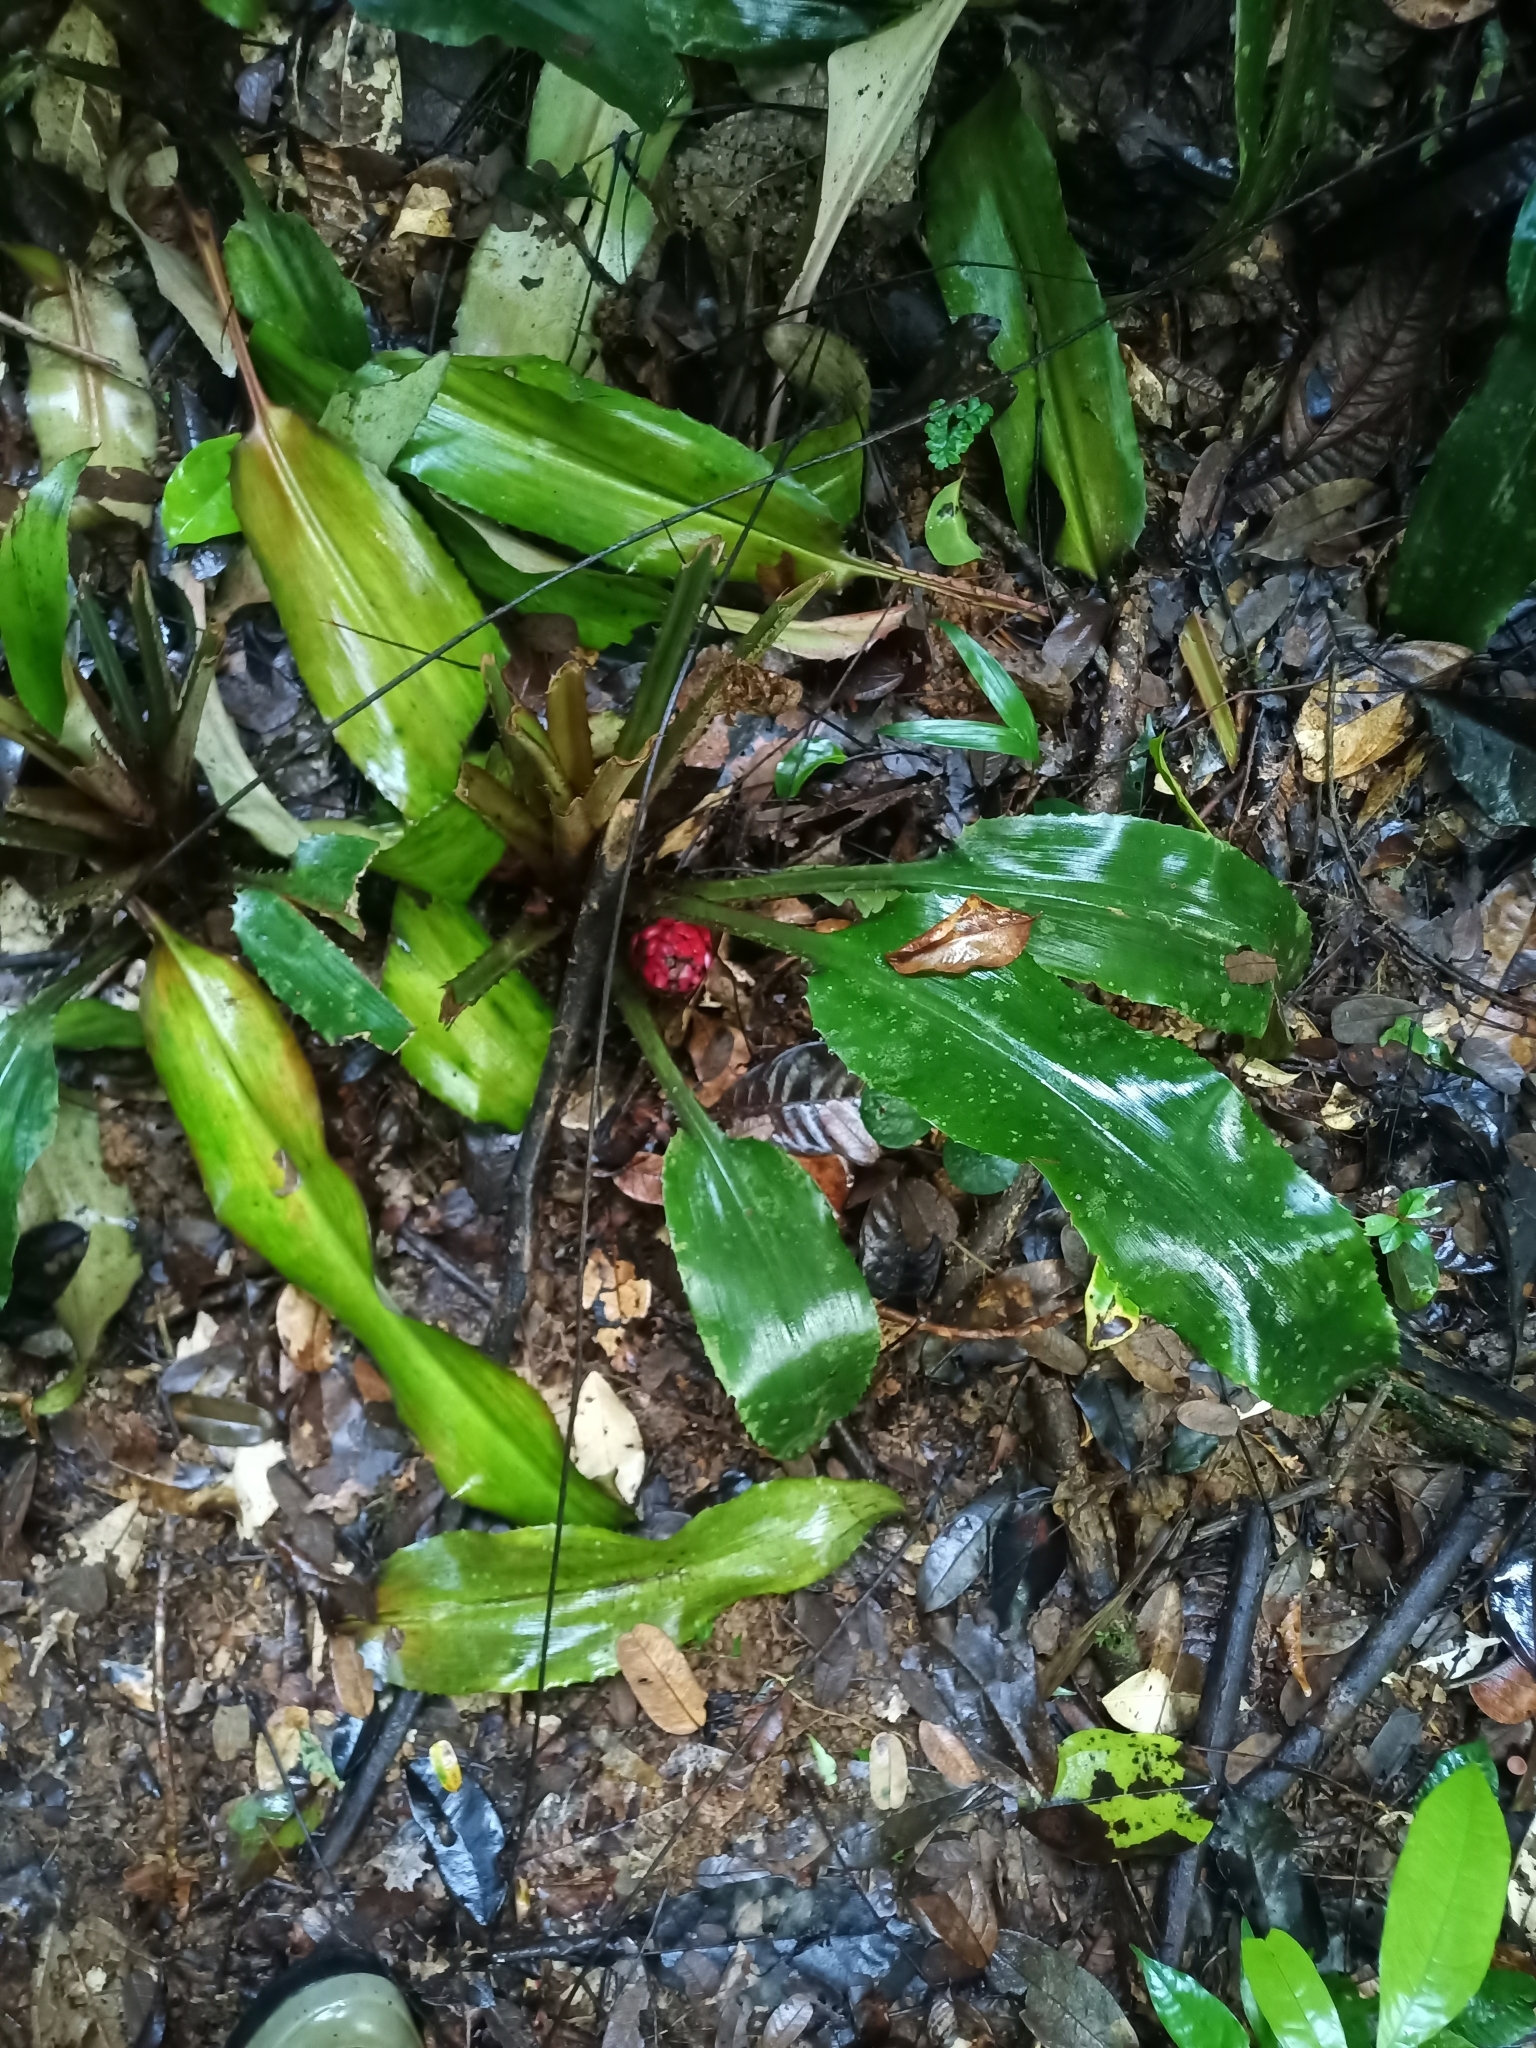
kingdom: Plantae
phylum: Tracheophyta
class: Liliopsida
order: Poales
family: Bromeliaceae
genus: Disteganthus
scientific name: Disteganthus basilateralis
